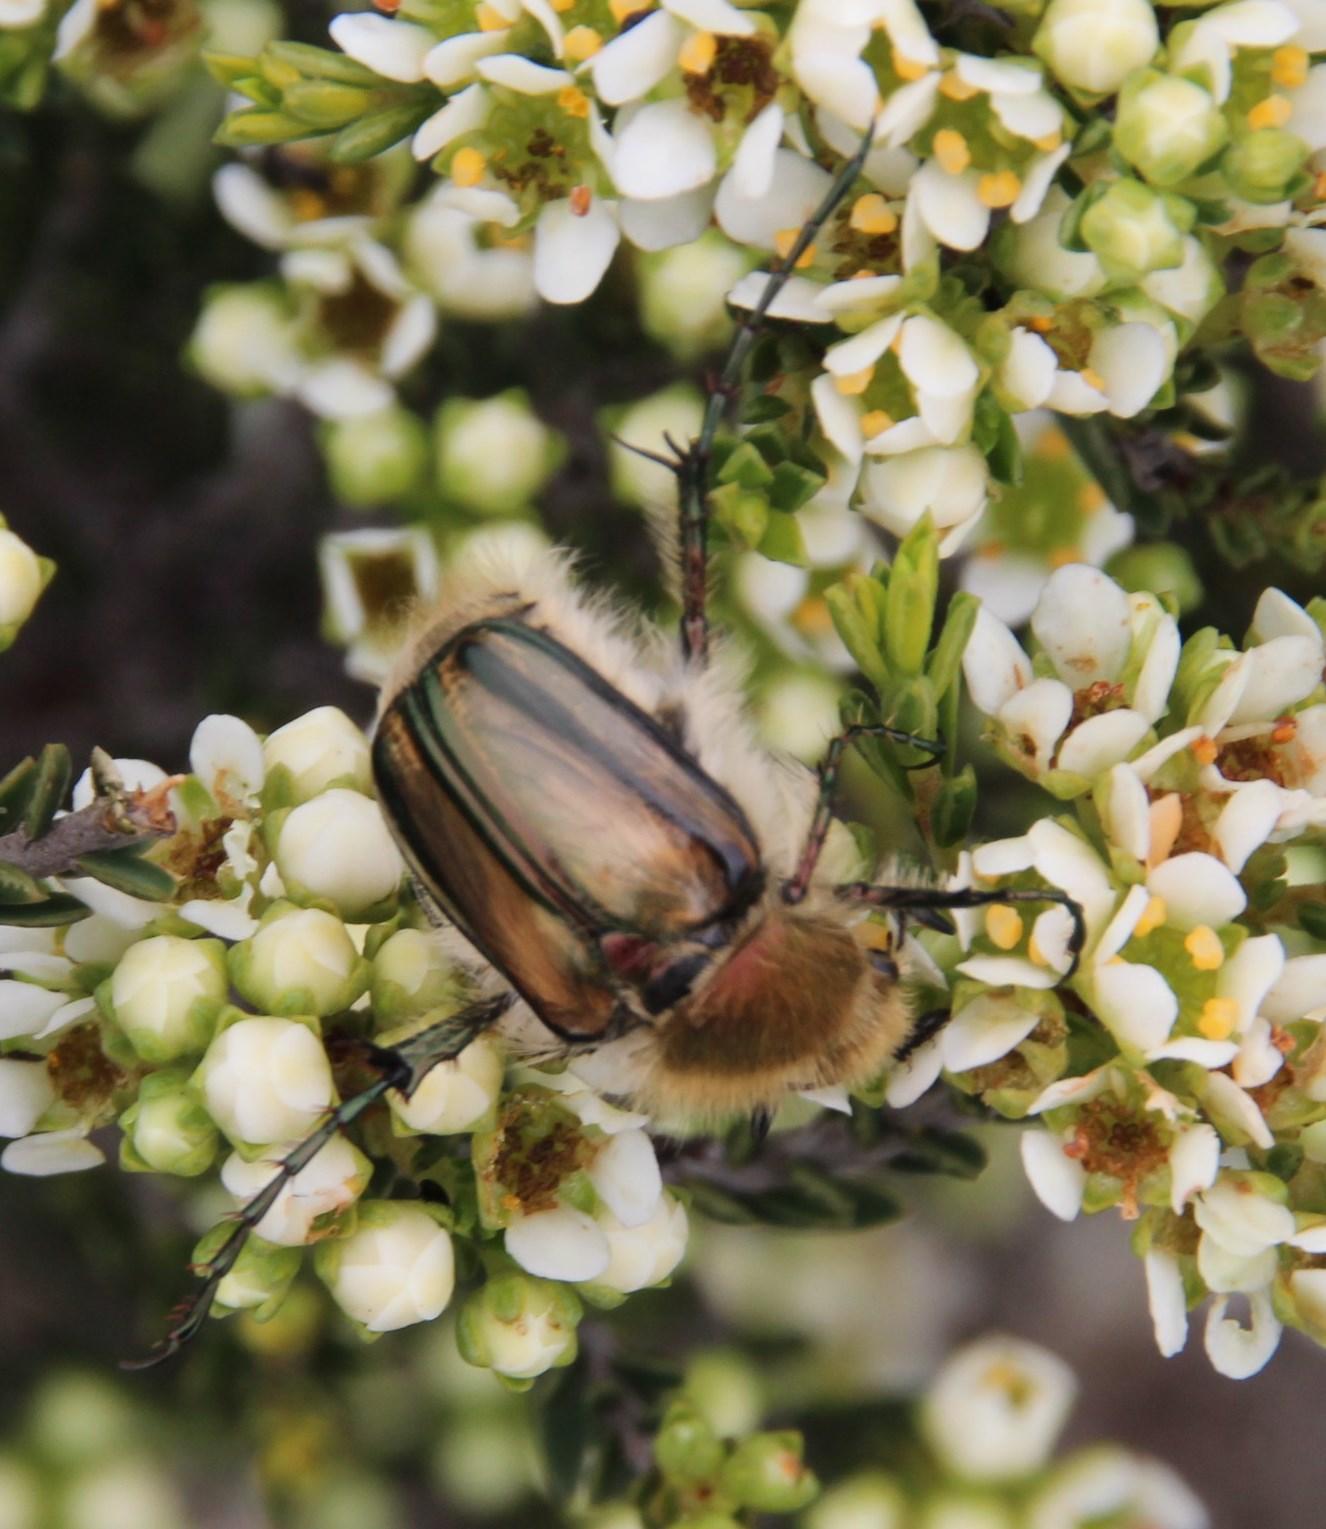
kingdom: Animalia
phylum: Arthropoda
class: Insecta
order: Coleoptera
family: Scarabaeidae
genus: Stegopterus
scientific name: Stegopterus vittatus
